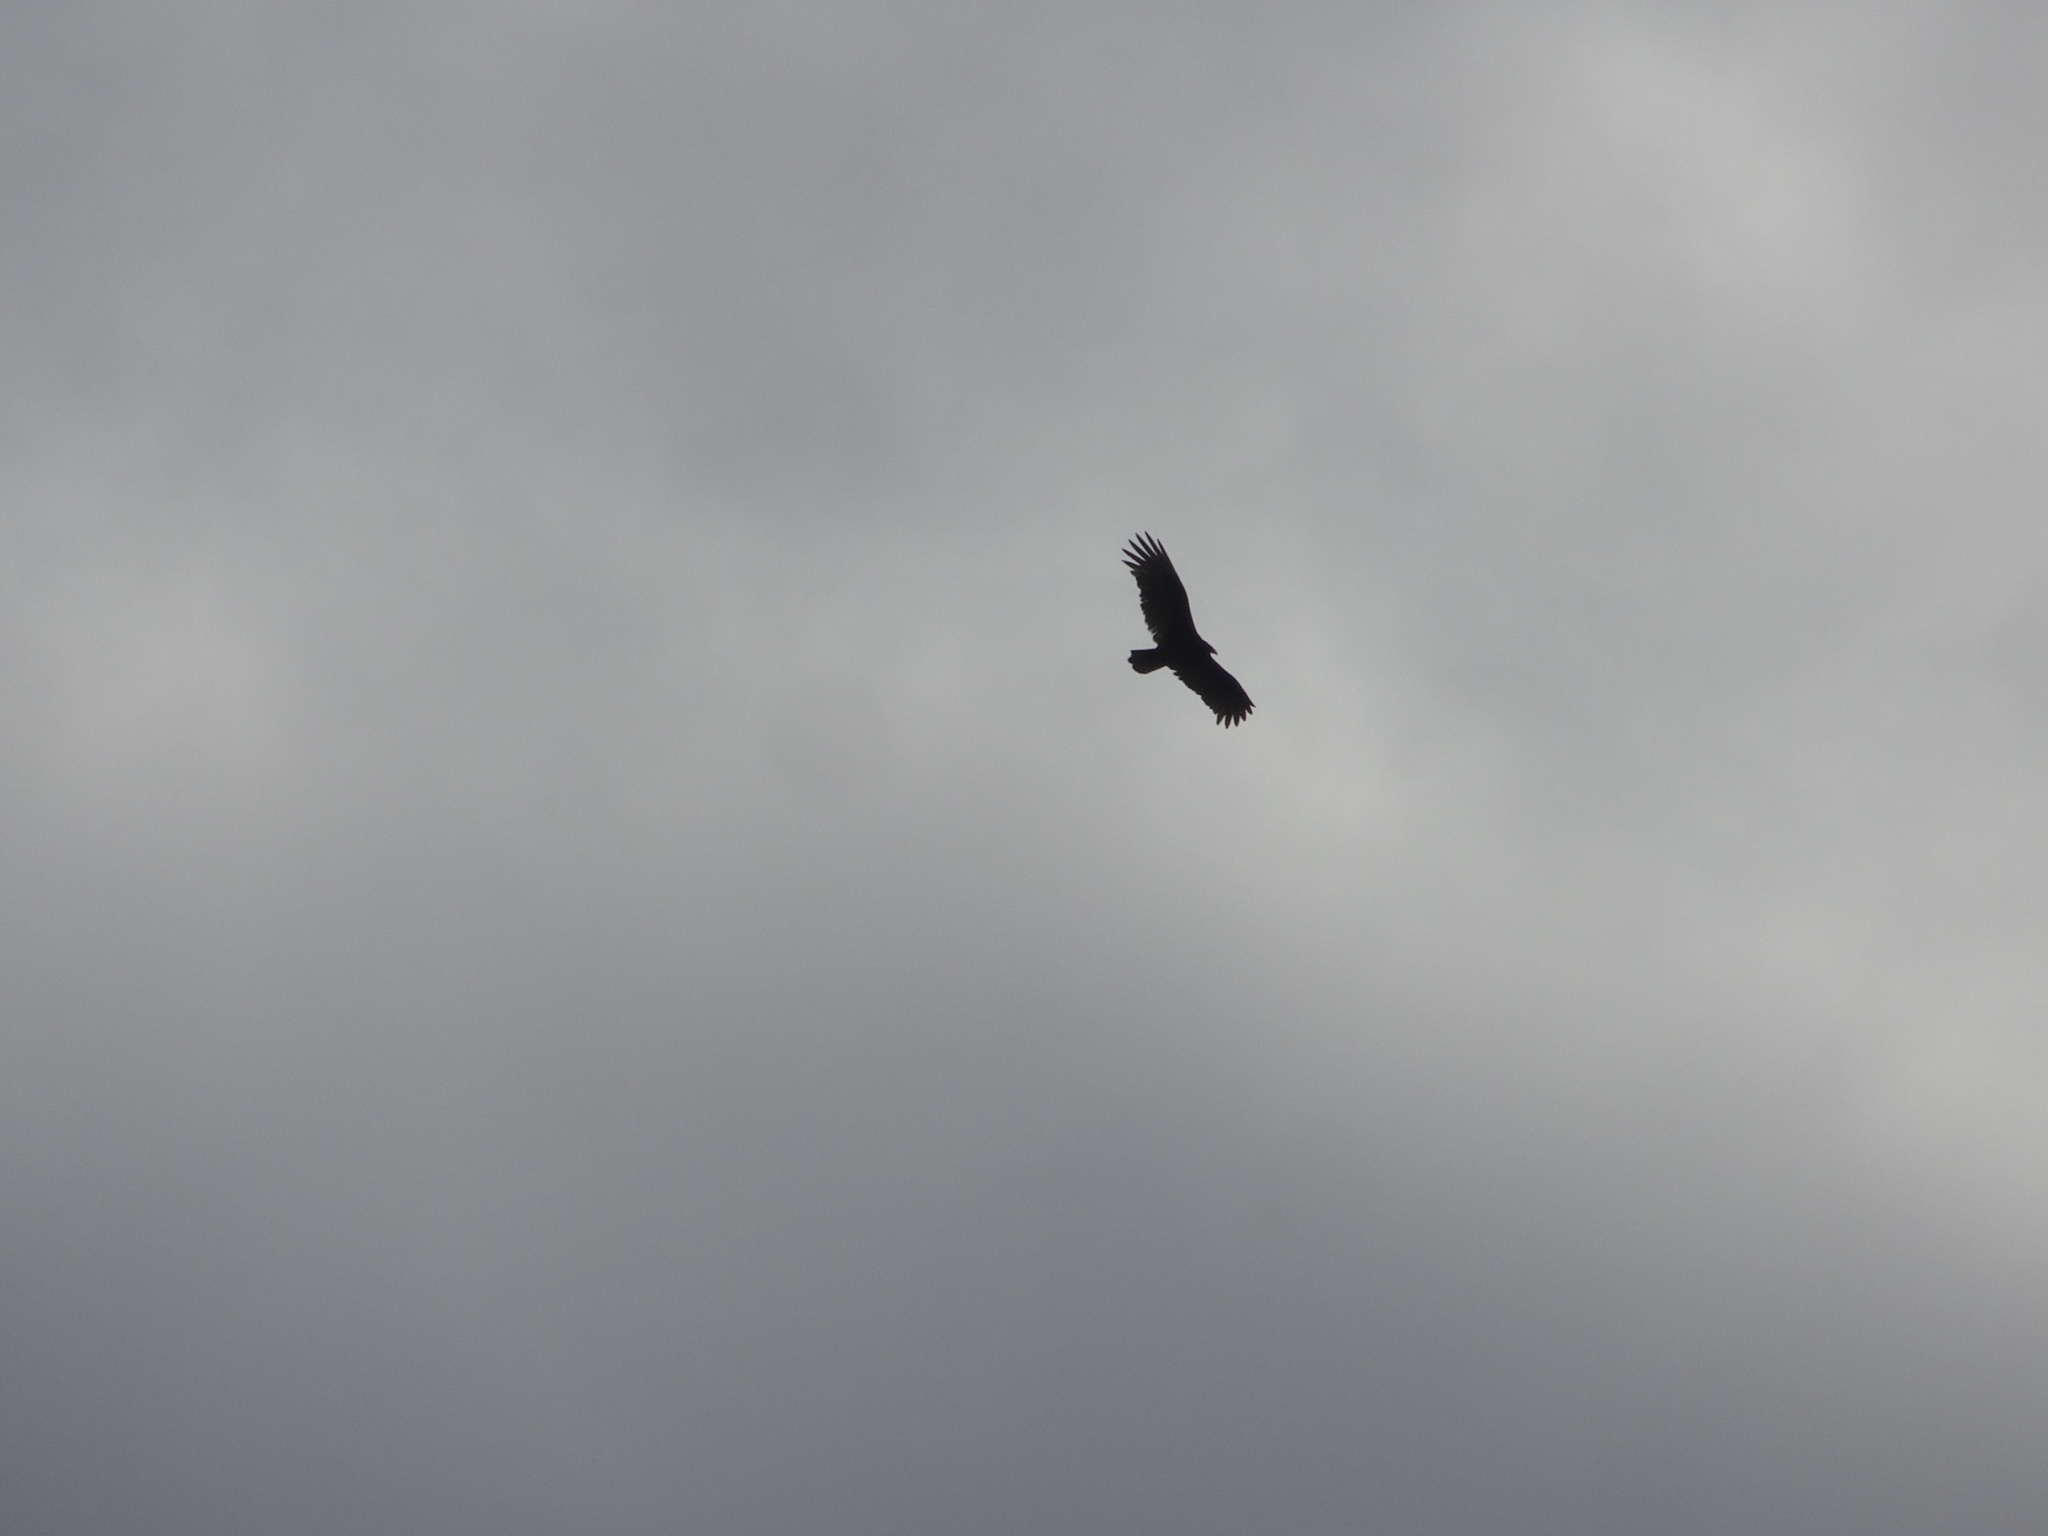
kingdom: Animalia
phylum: Chordata
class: Aves
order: Accipitriformes
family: Cathartidae
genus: Cathartes
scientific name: Cathartes aura
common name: Turkey vulture
